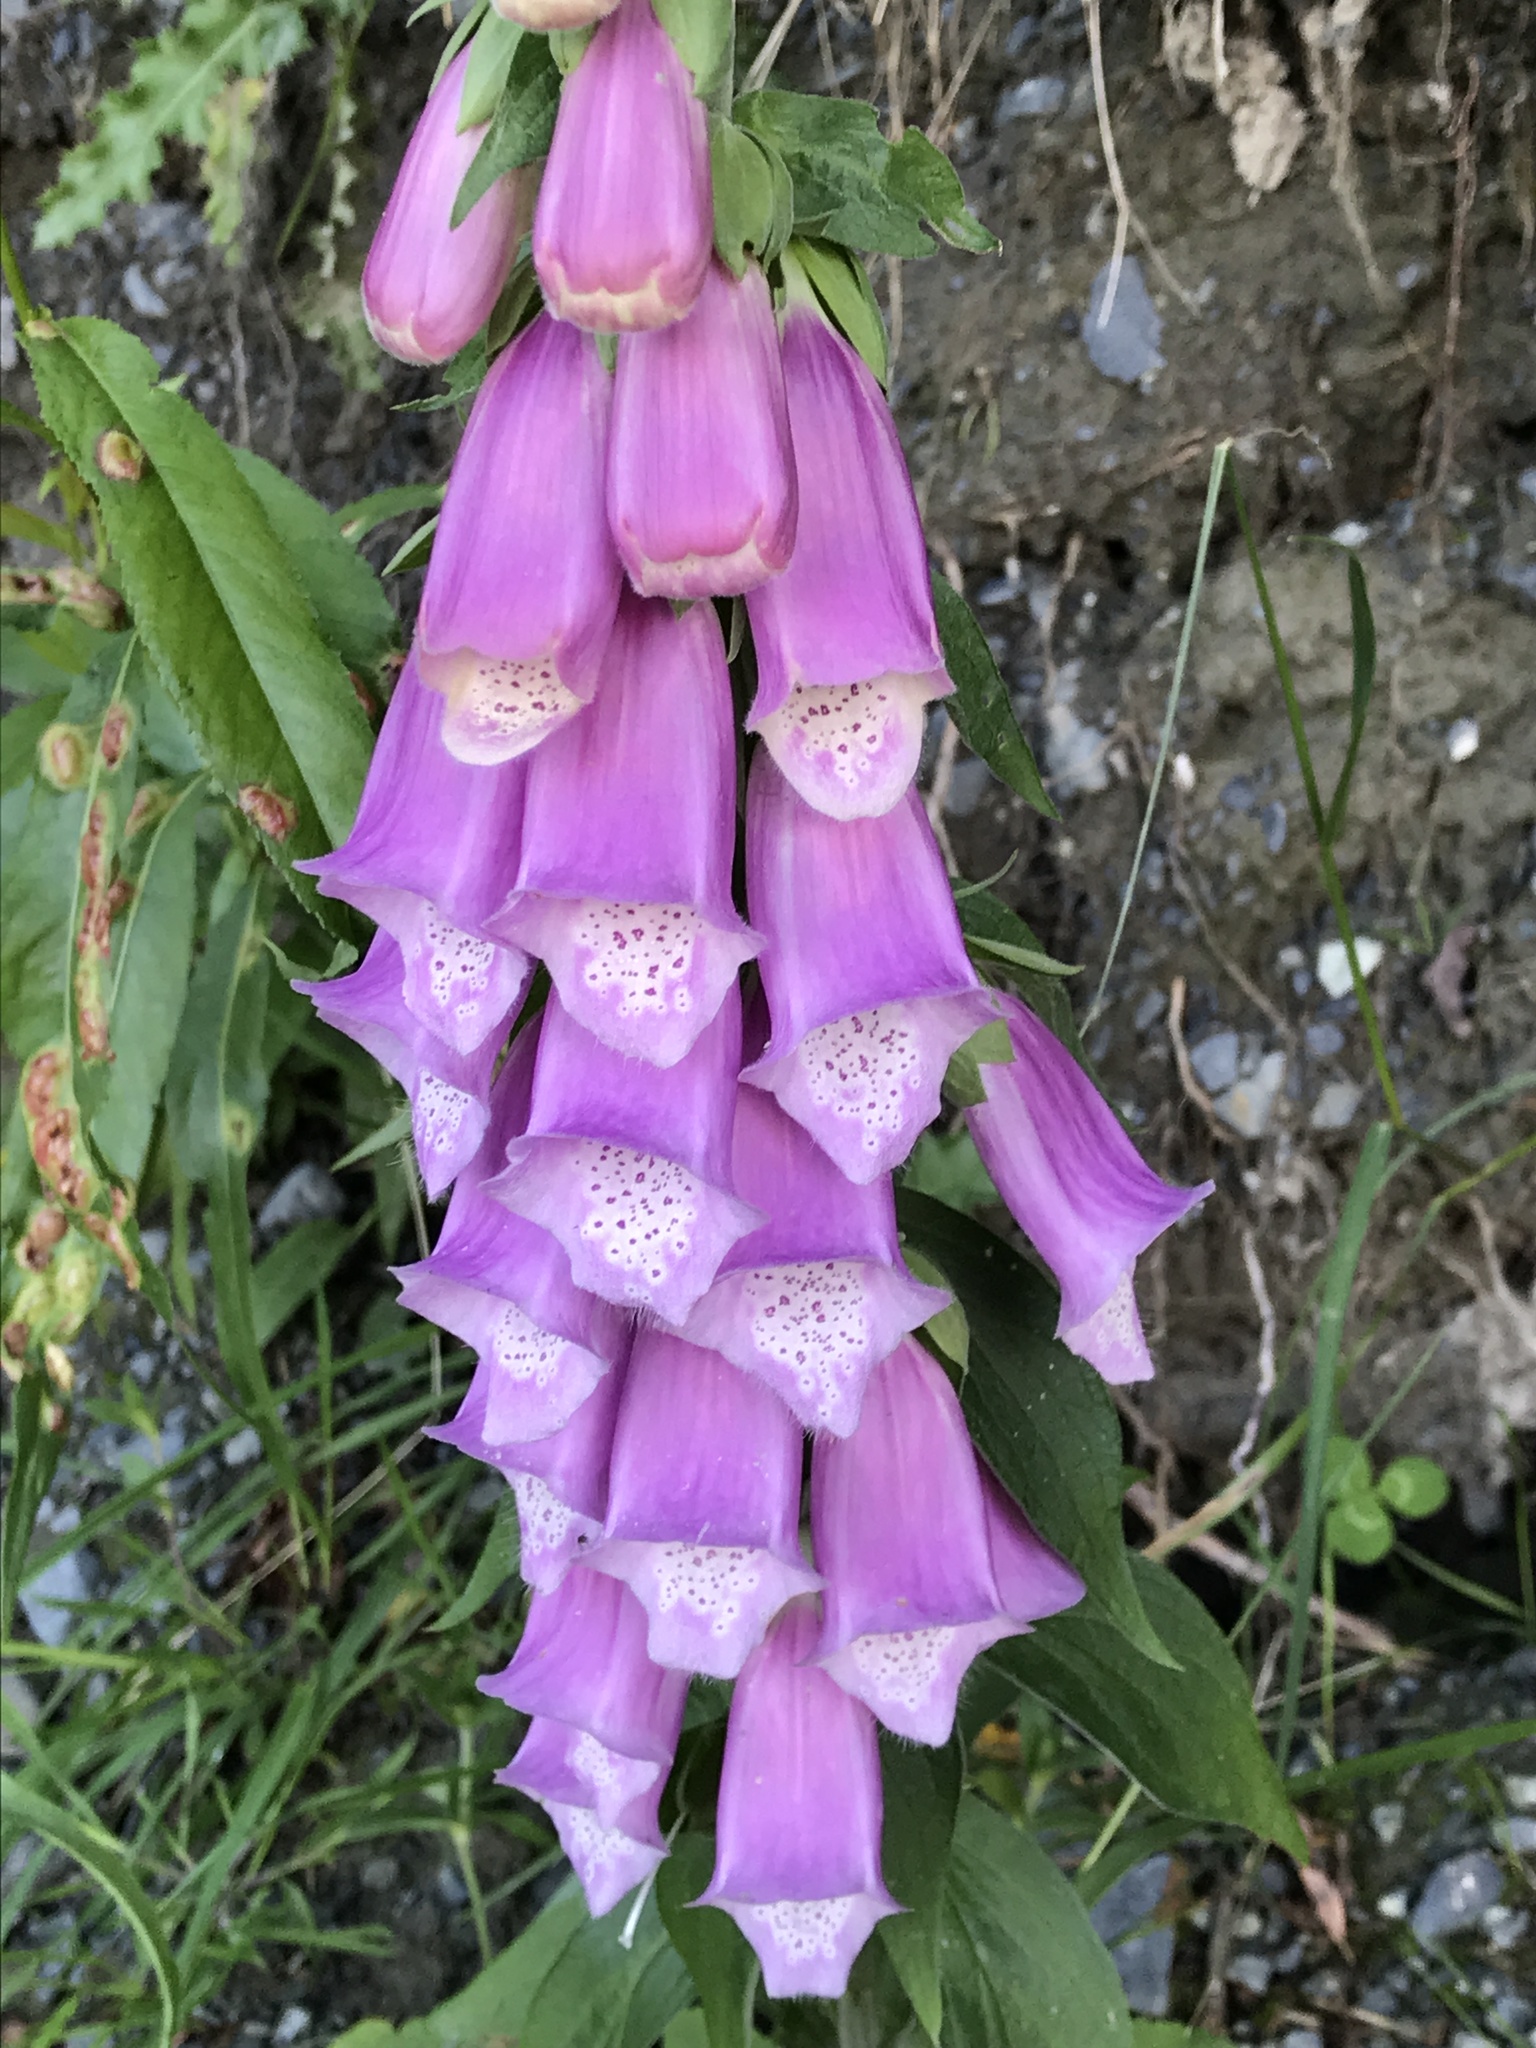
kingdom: Plantae
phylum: Tracheophyta
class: Magnoliopsida
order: Lamiales
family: Plantaginaceae
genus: Digitalis
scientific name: Digitalis purpurea
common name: Foxglove
